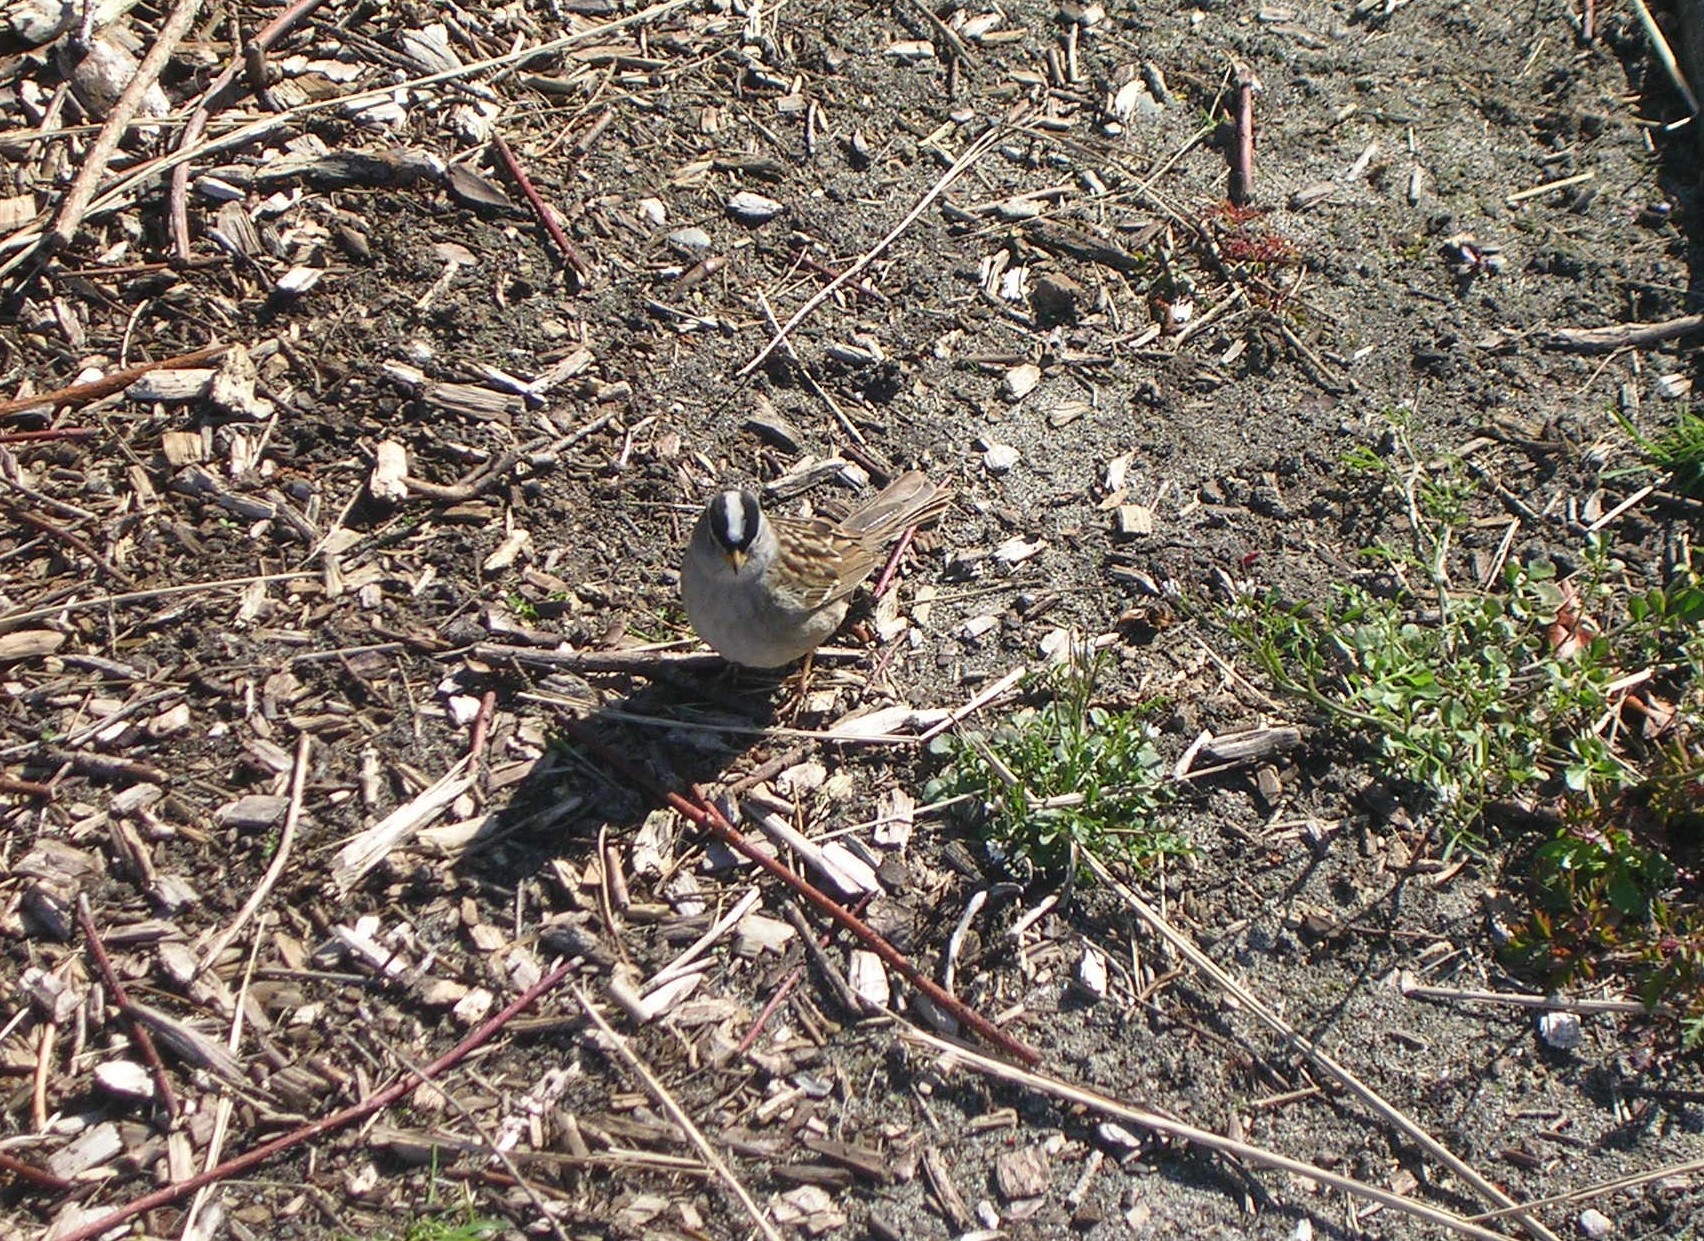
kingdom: Animalia
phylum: Chordata
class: Aves
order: Passeriformes
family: Passerellidae
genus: Zonotrichia
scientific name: Zonotrichia leucophrys
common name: White-crowned sparrow
